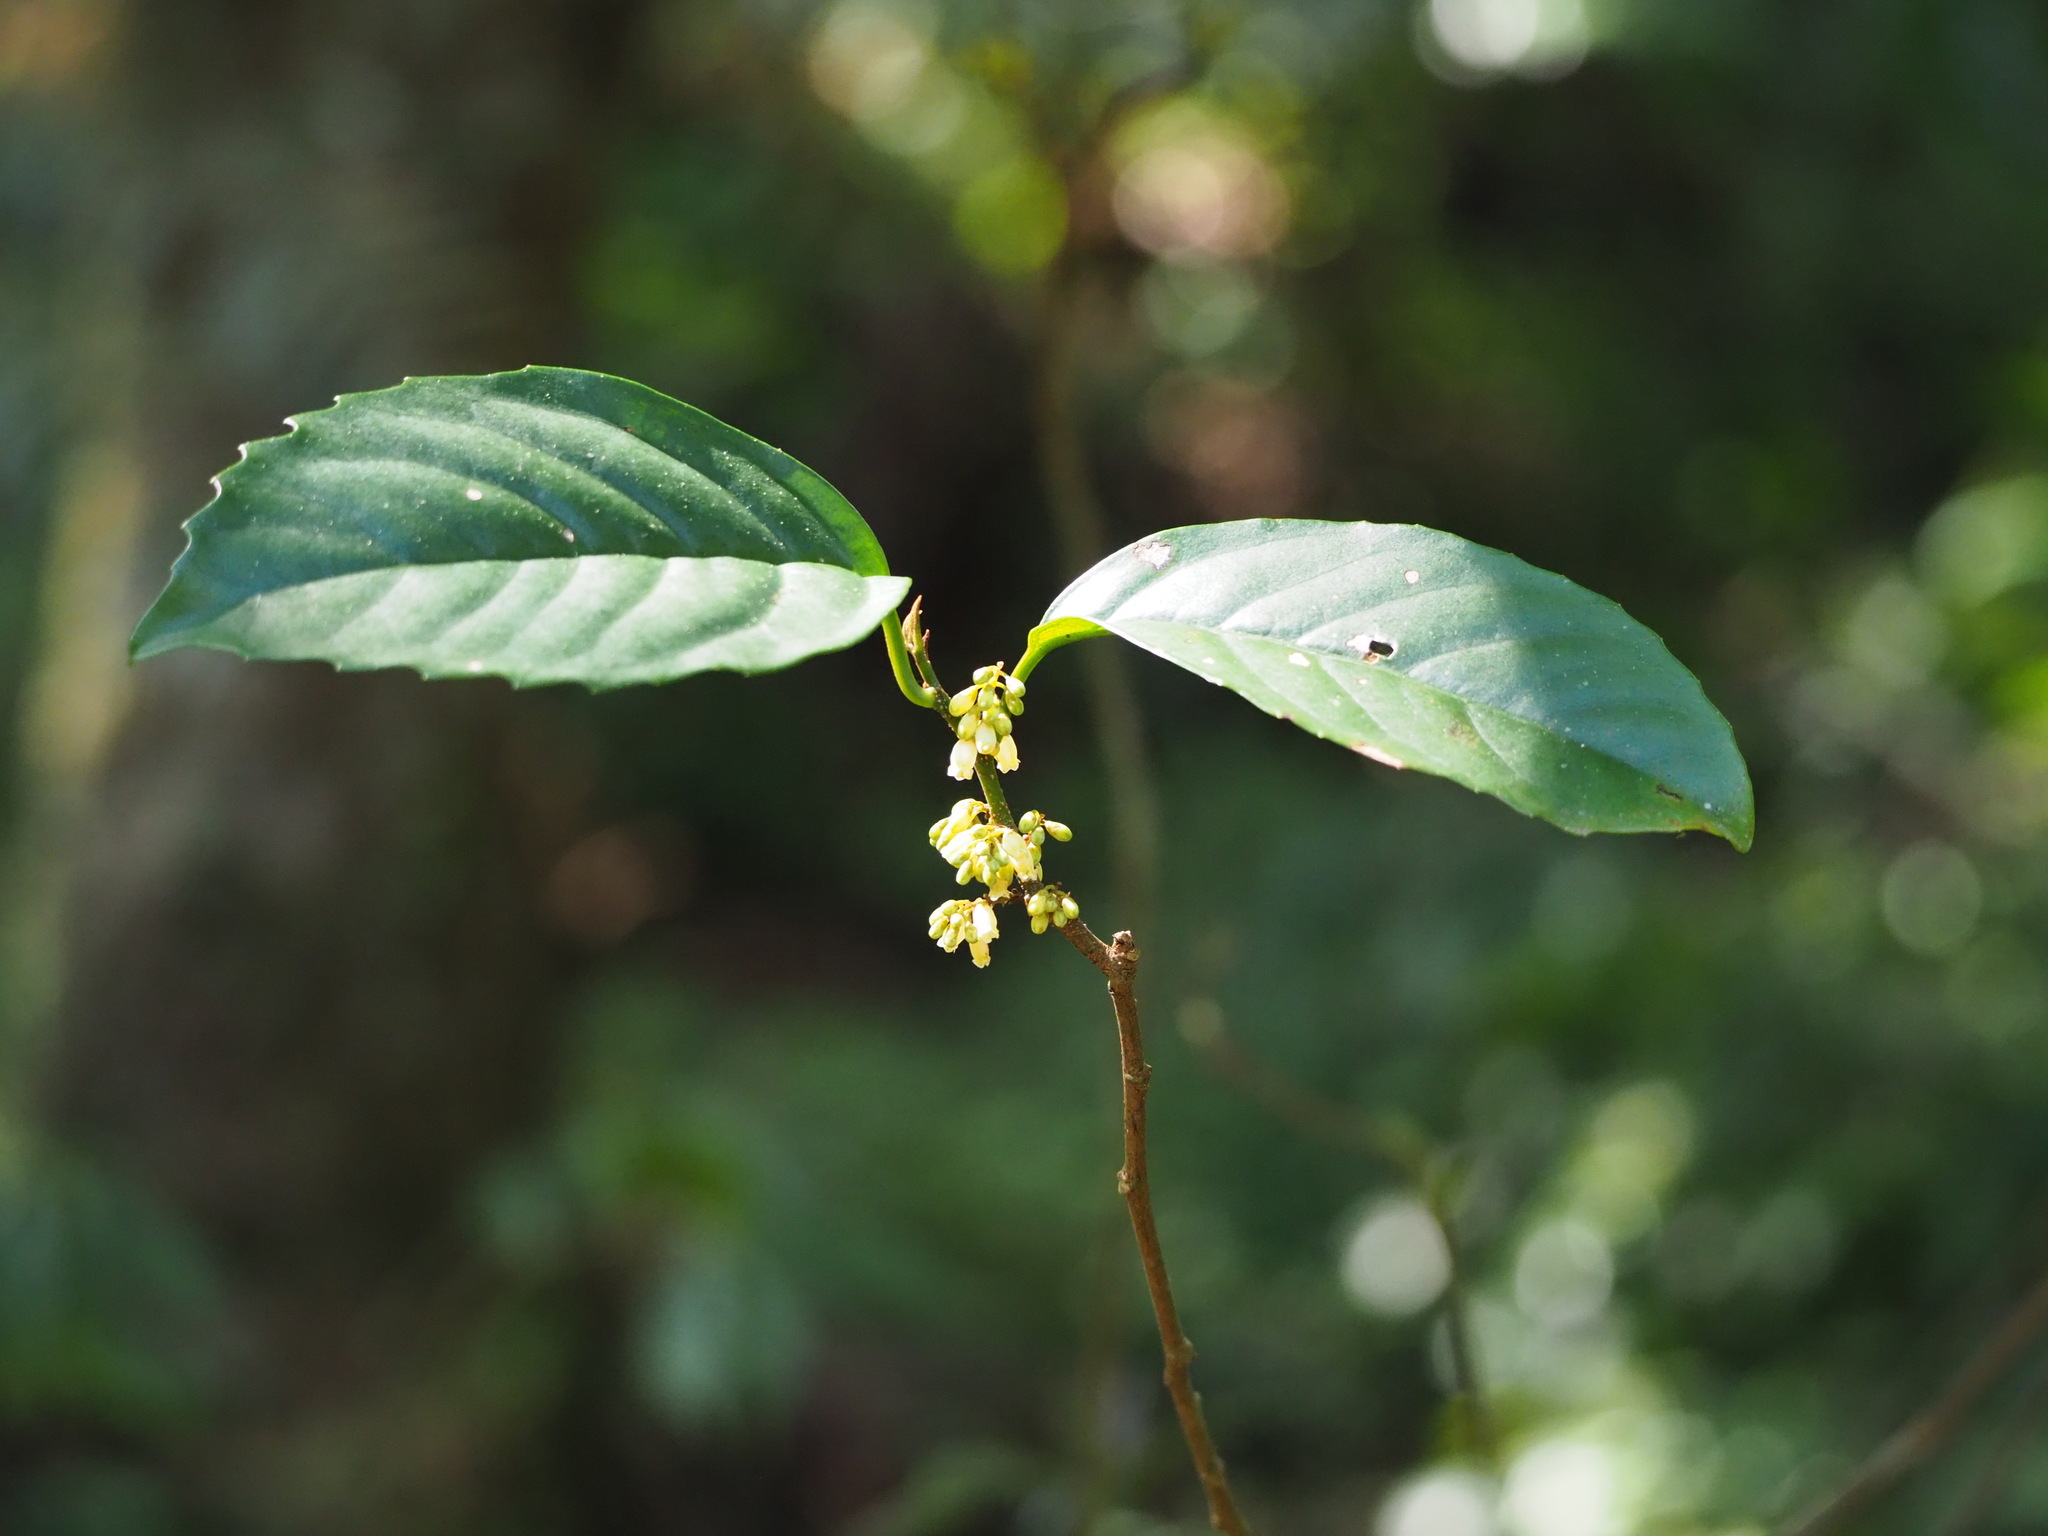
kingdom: Plantae
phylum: Tracheophyta
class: Magnoliopsida
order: Ericales
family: Primulaceae
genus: Maesa
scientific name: Maesa japonica
